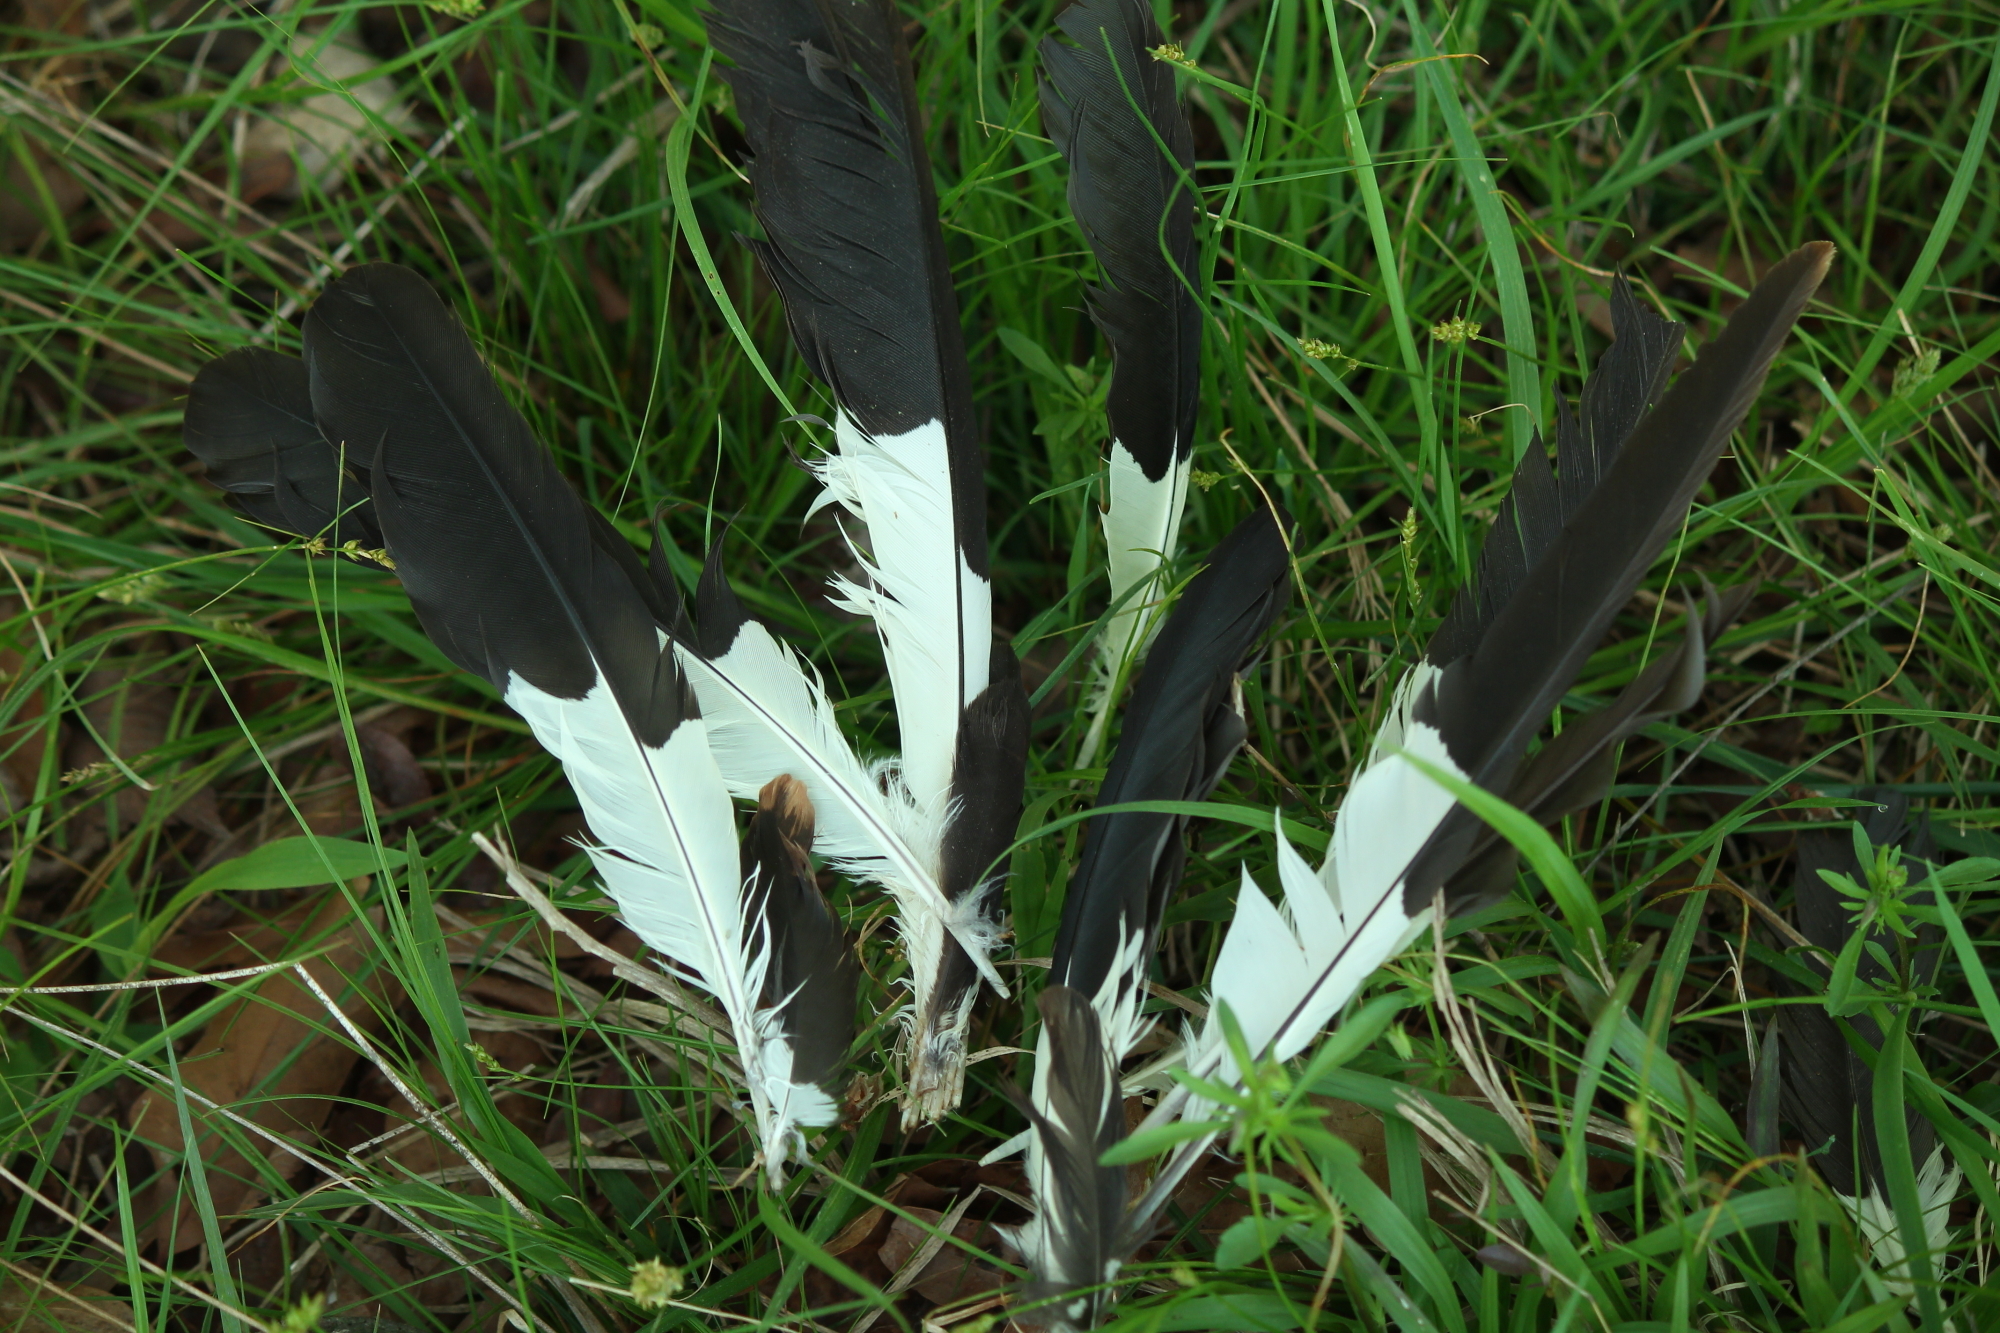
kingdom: Animalia
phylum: Chordata
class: Aves
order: Piciformes
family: Picidae
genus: Dryocopus
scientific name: Dryocopus pileatus
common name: Pileated woodpecker
